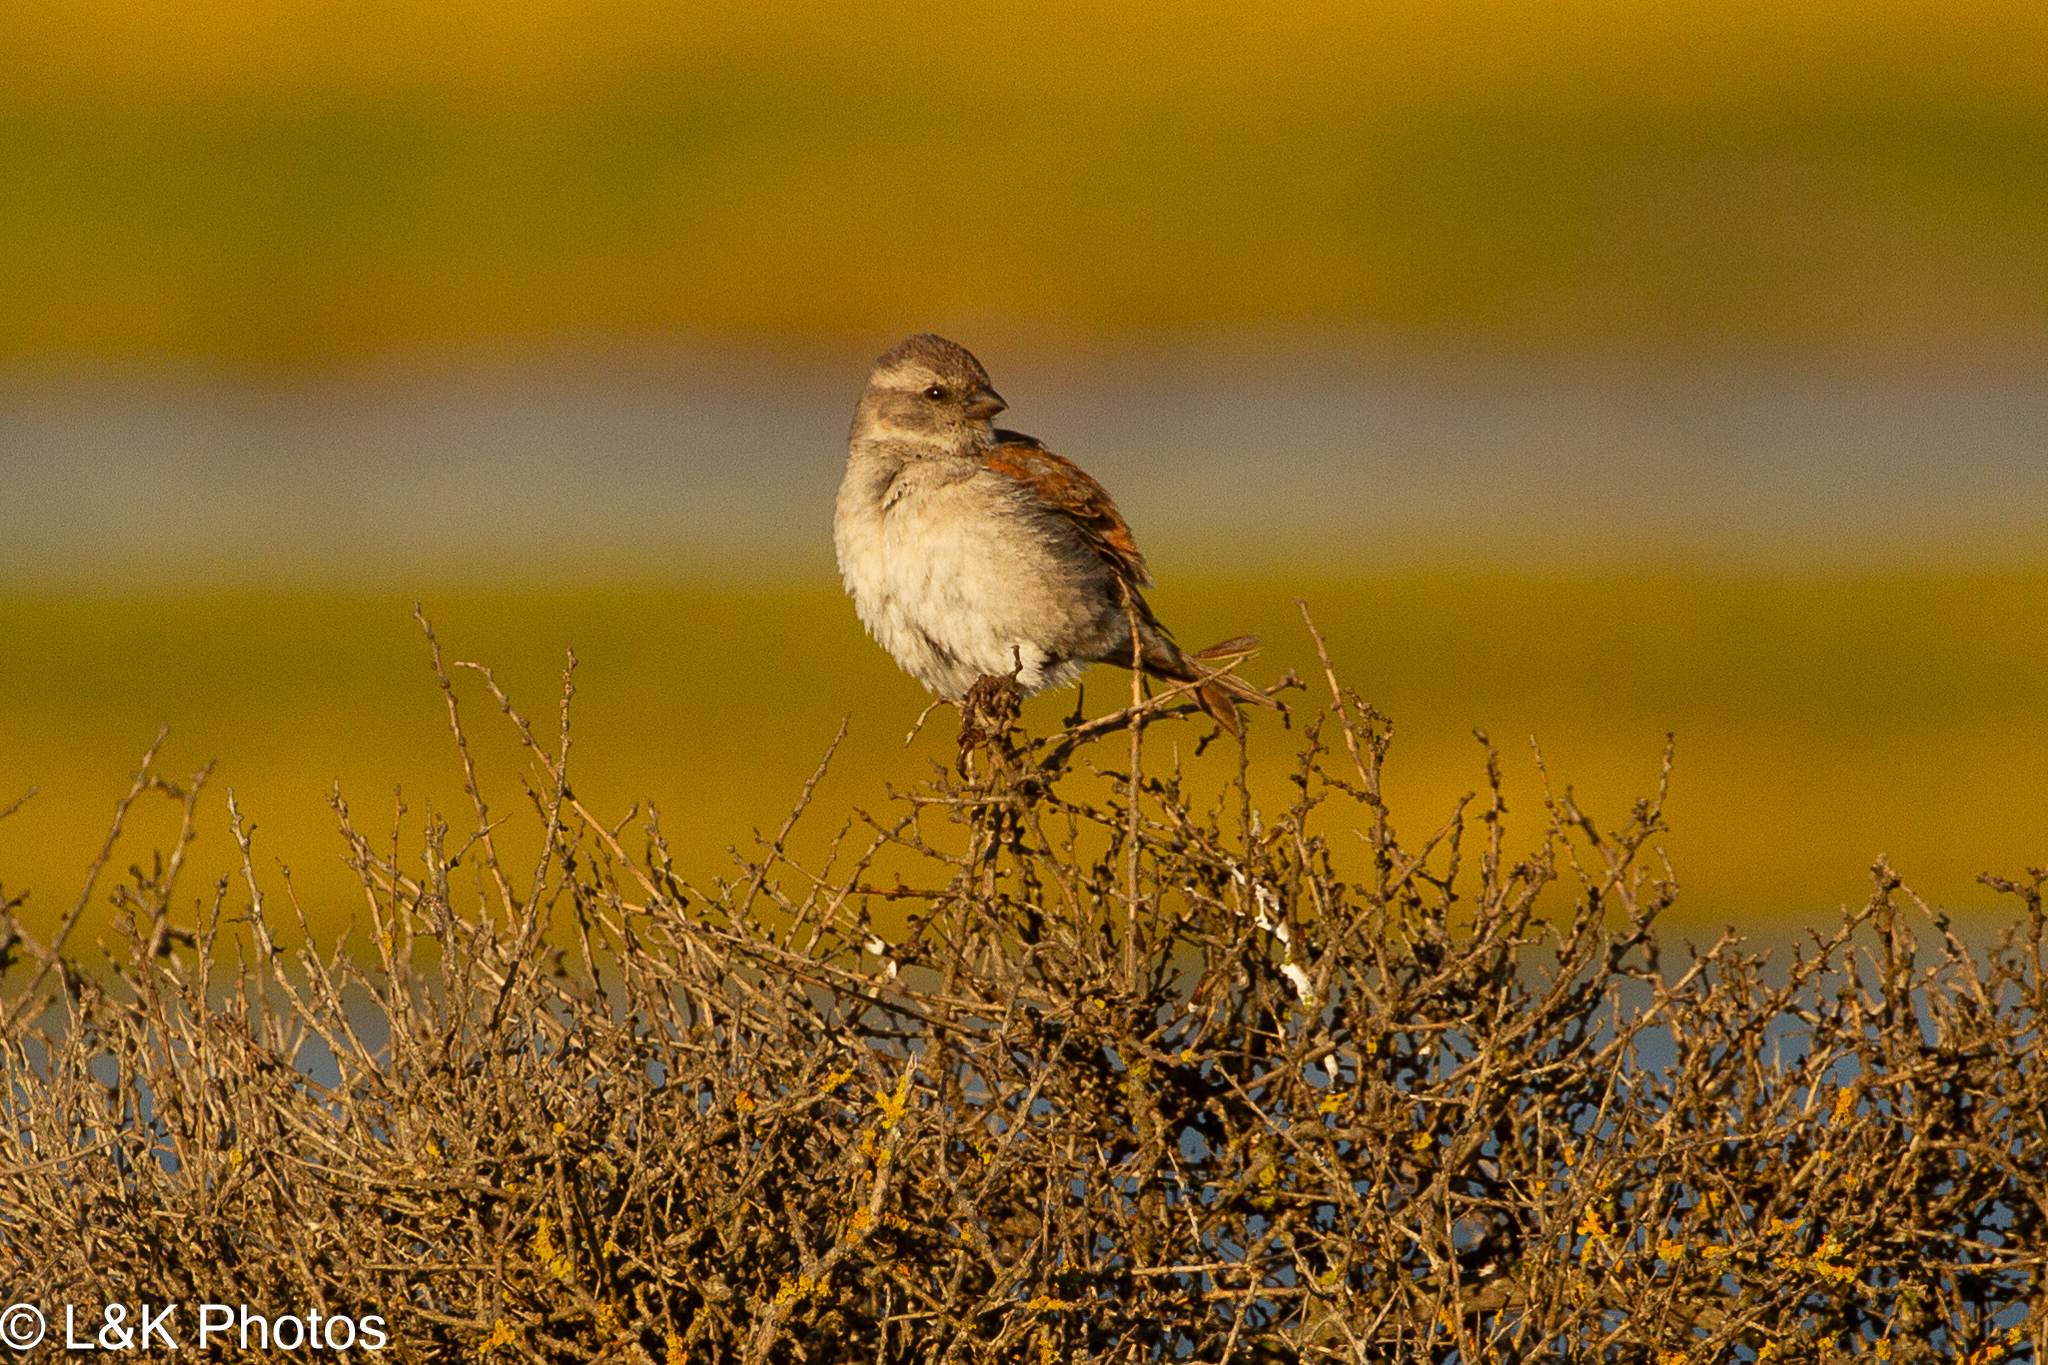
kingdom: Animalia
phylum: Chordata
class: Aves
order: Passeriformes
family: Passeridae
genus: Passer
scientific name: Passer melanurus
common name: Cape sparrow
